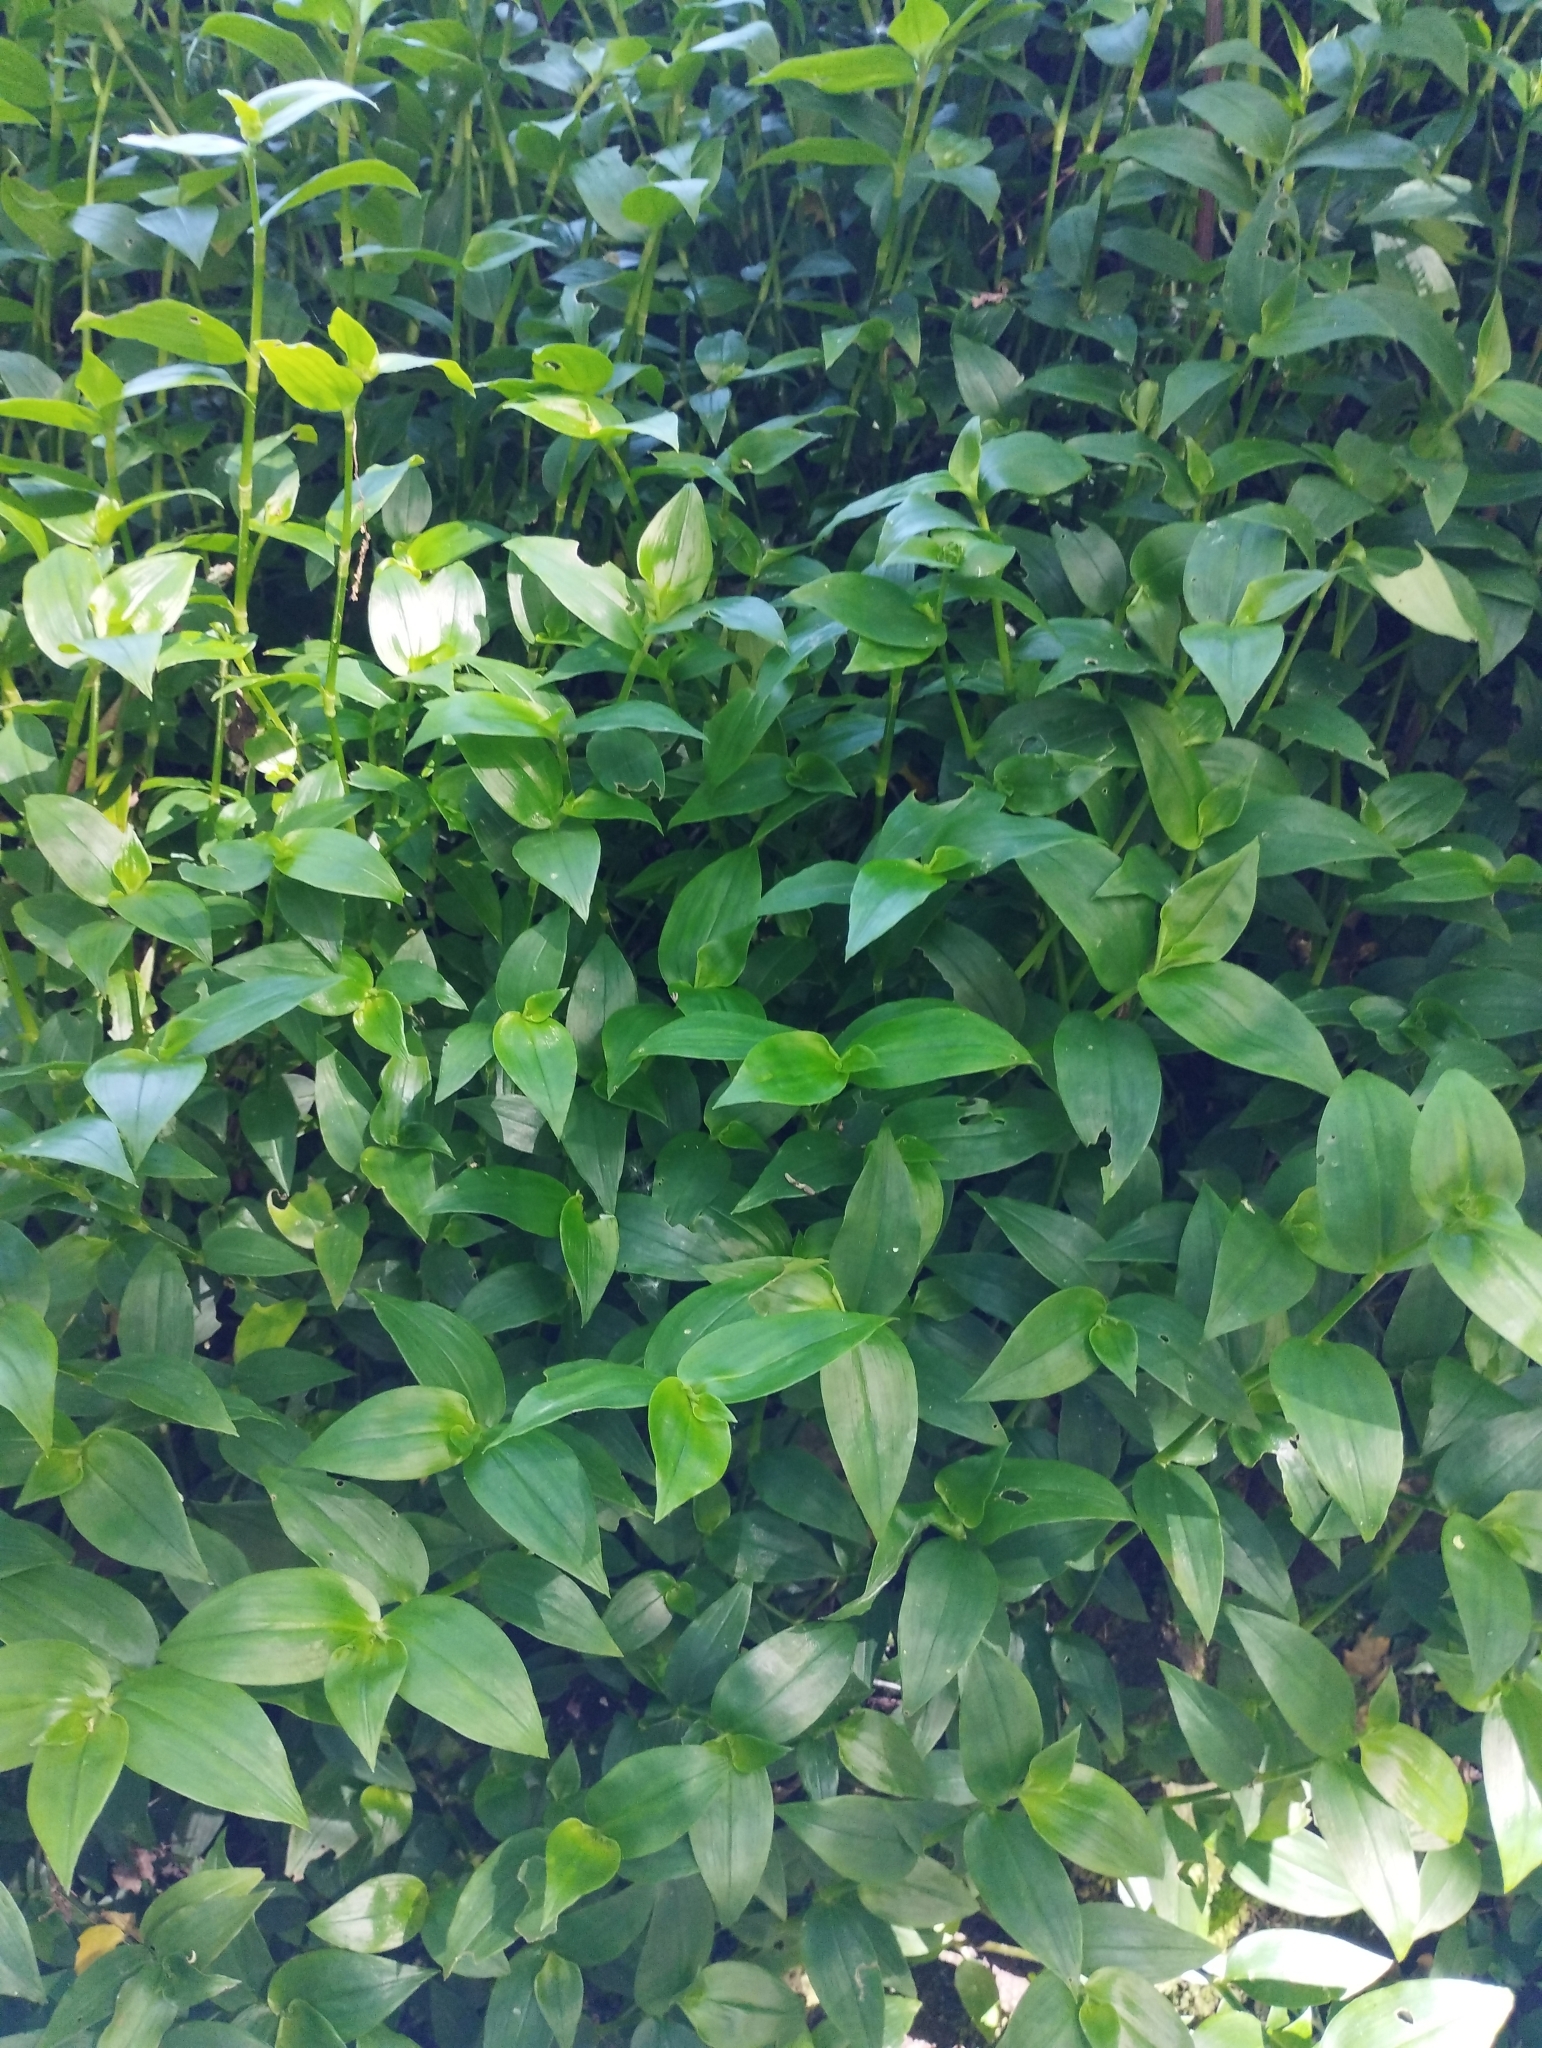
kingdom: Plantae
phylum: Tracheophyta
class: Liliopsida
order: Commelinales
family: Commelinaceae
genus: Tradescantia
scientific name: Tradescantia fluminensis
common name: Wandering-jew
